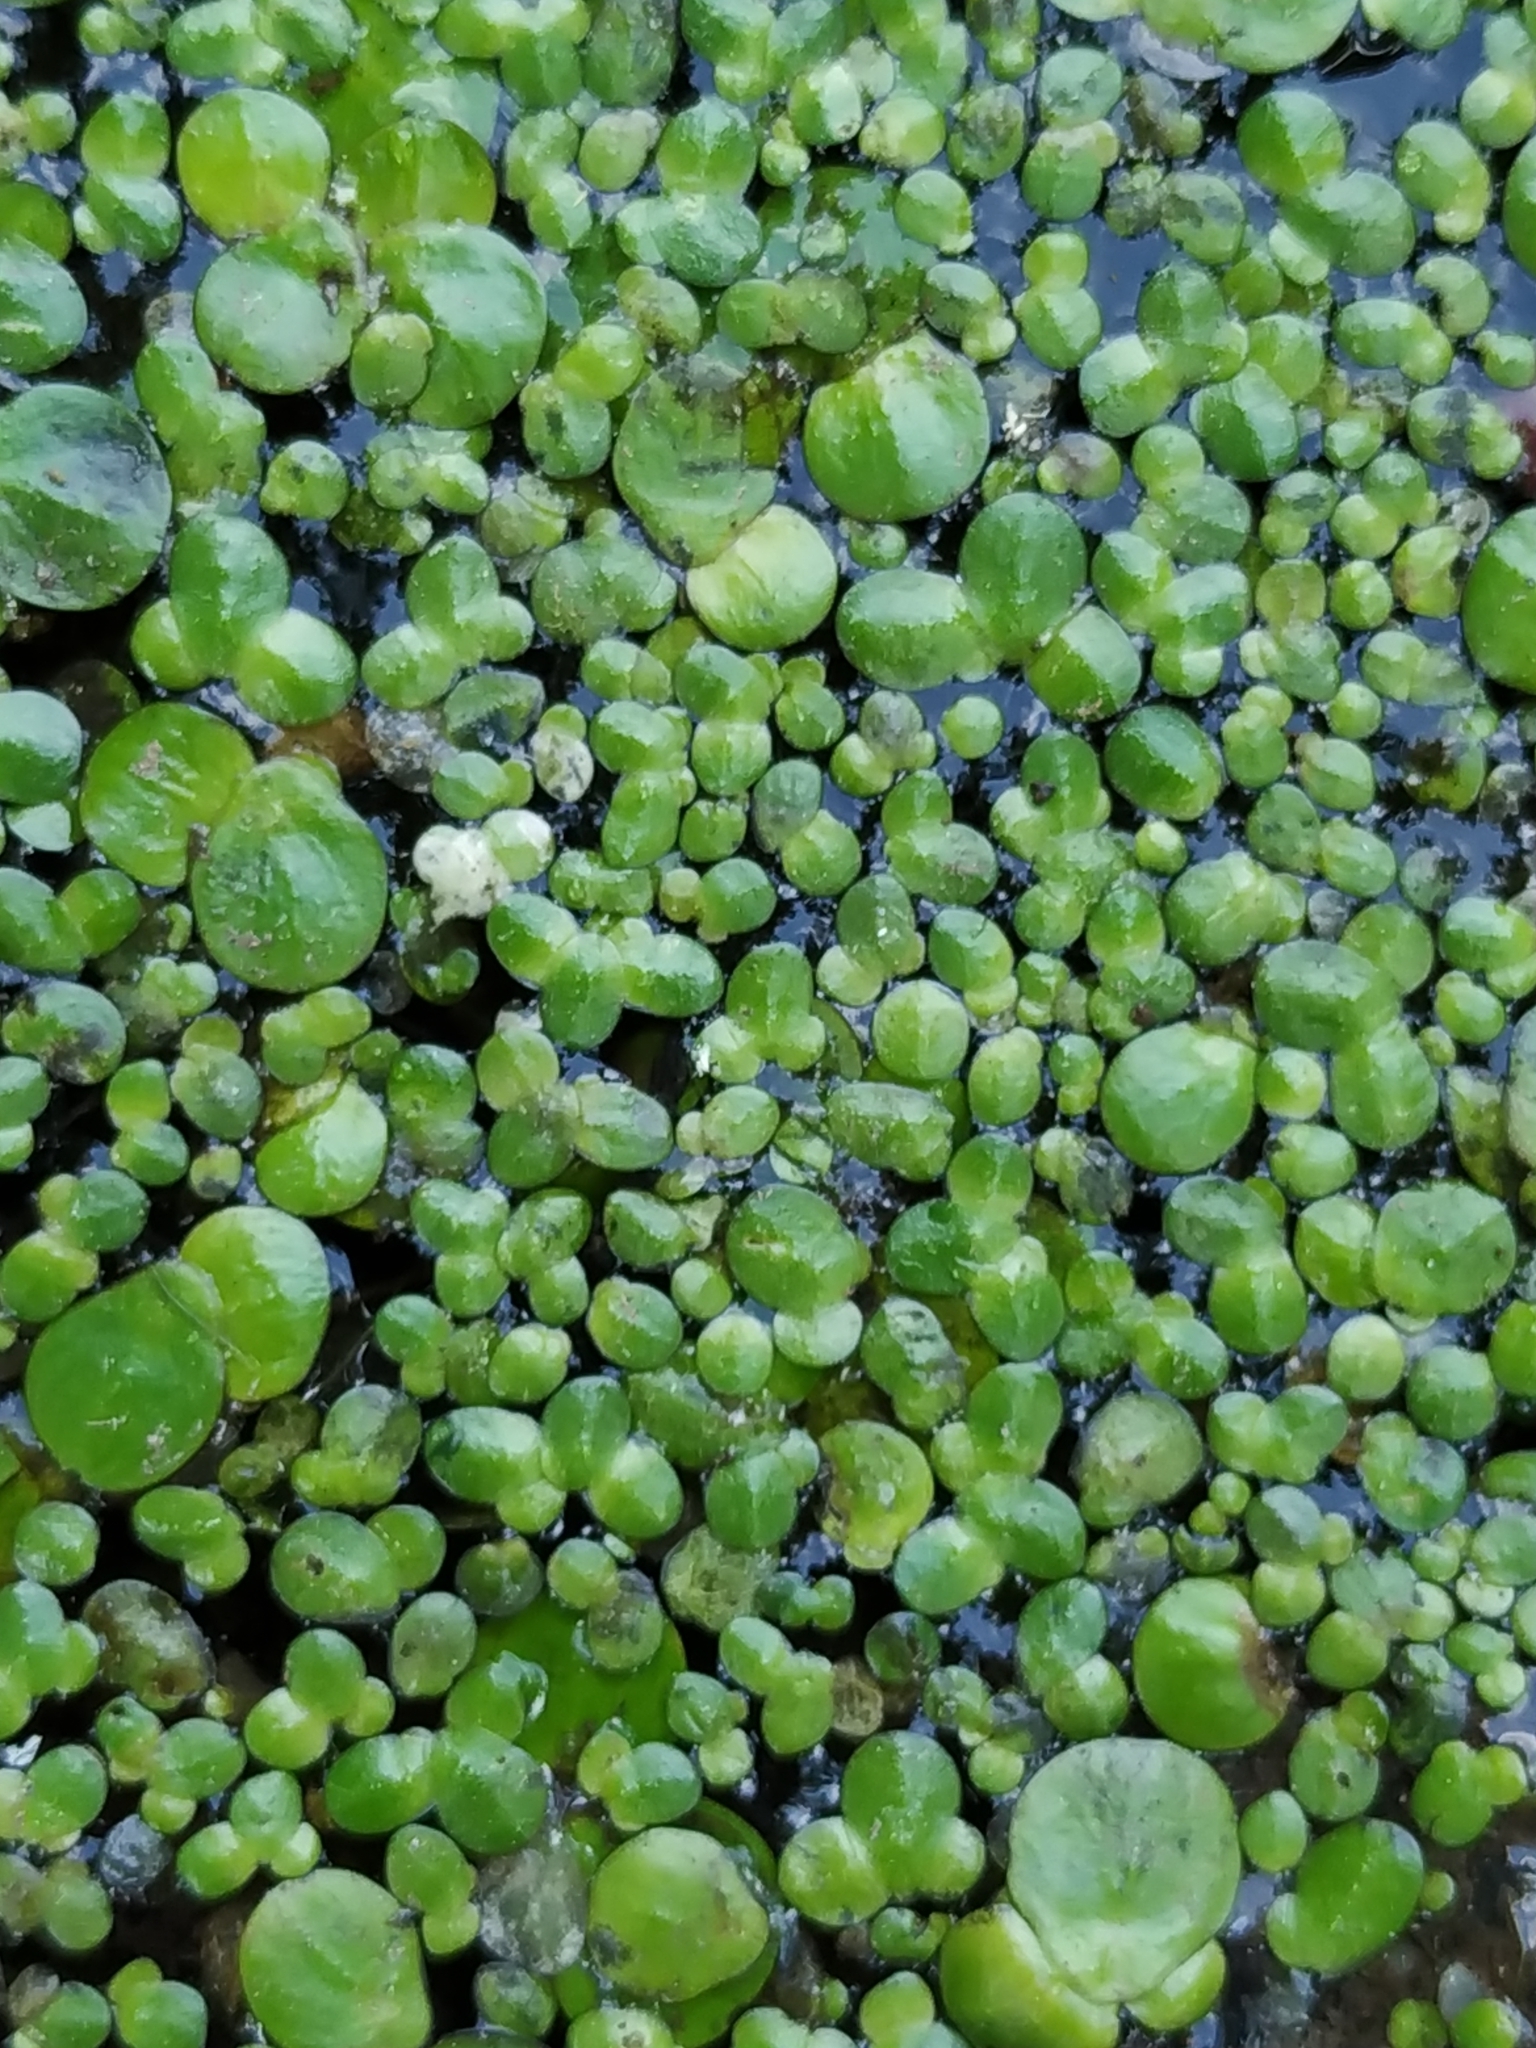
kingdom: Plantae
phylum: Tracheophyta
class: Liliopsida
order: Alismatales
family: Araceae
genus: Lemna
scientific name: Lemna minor
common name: Common duckweed
